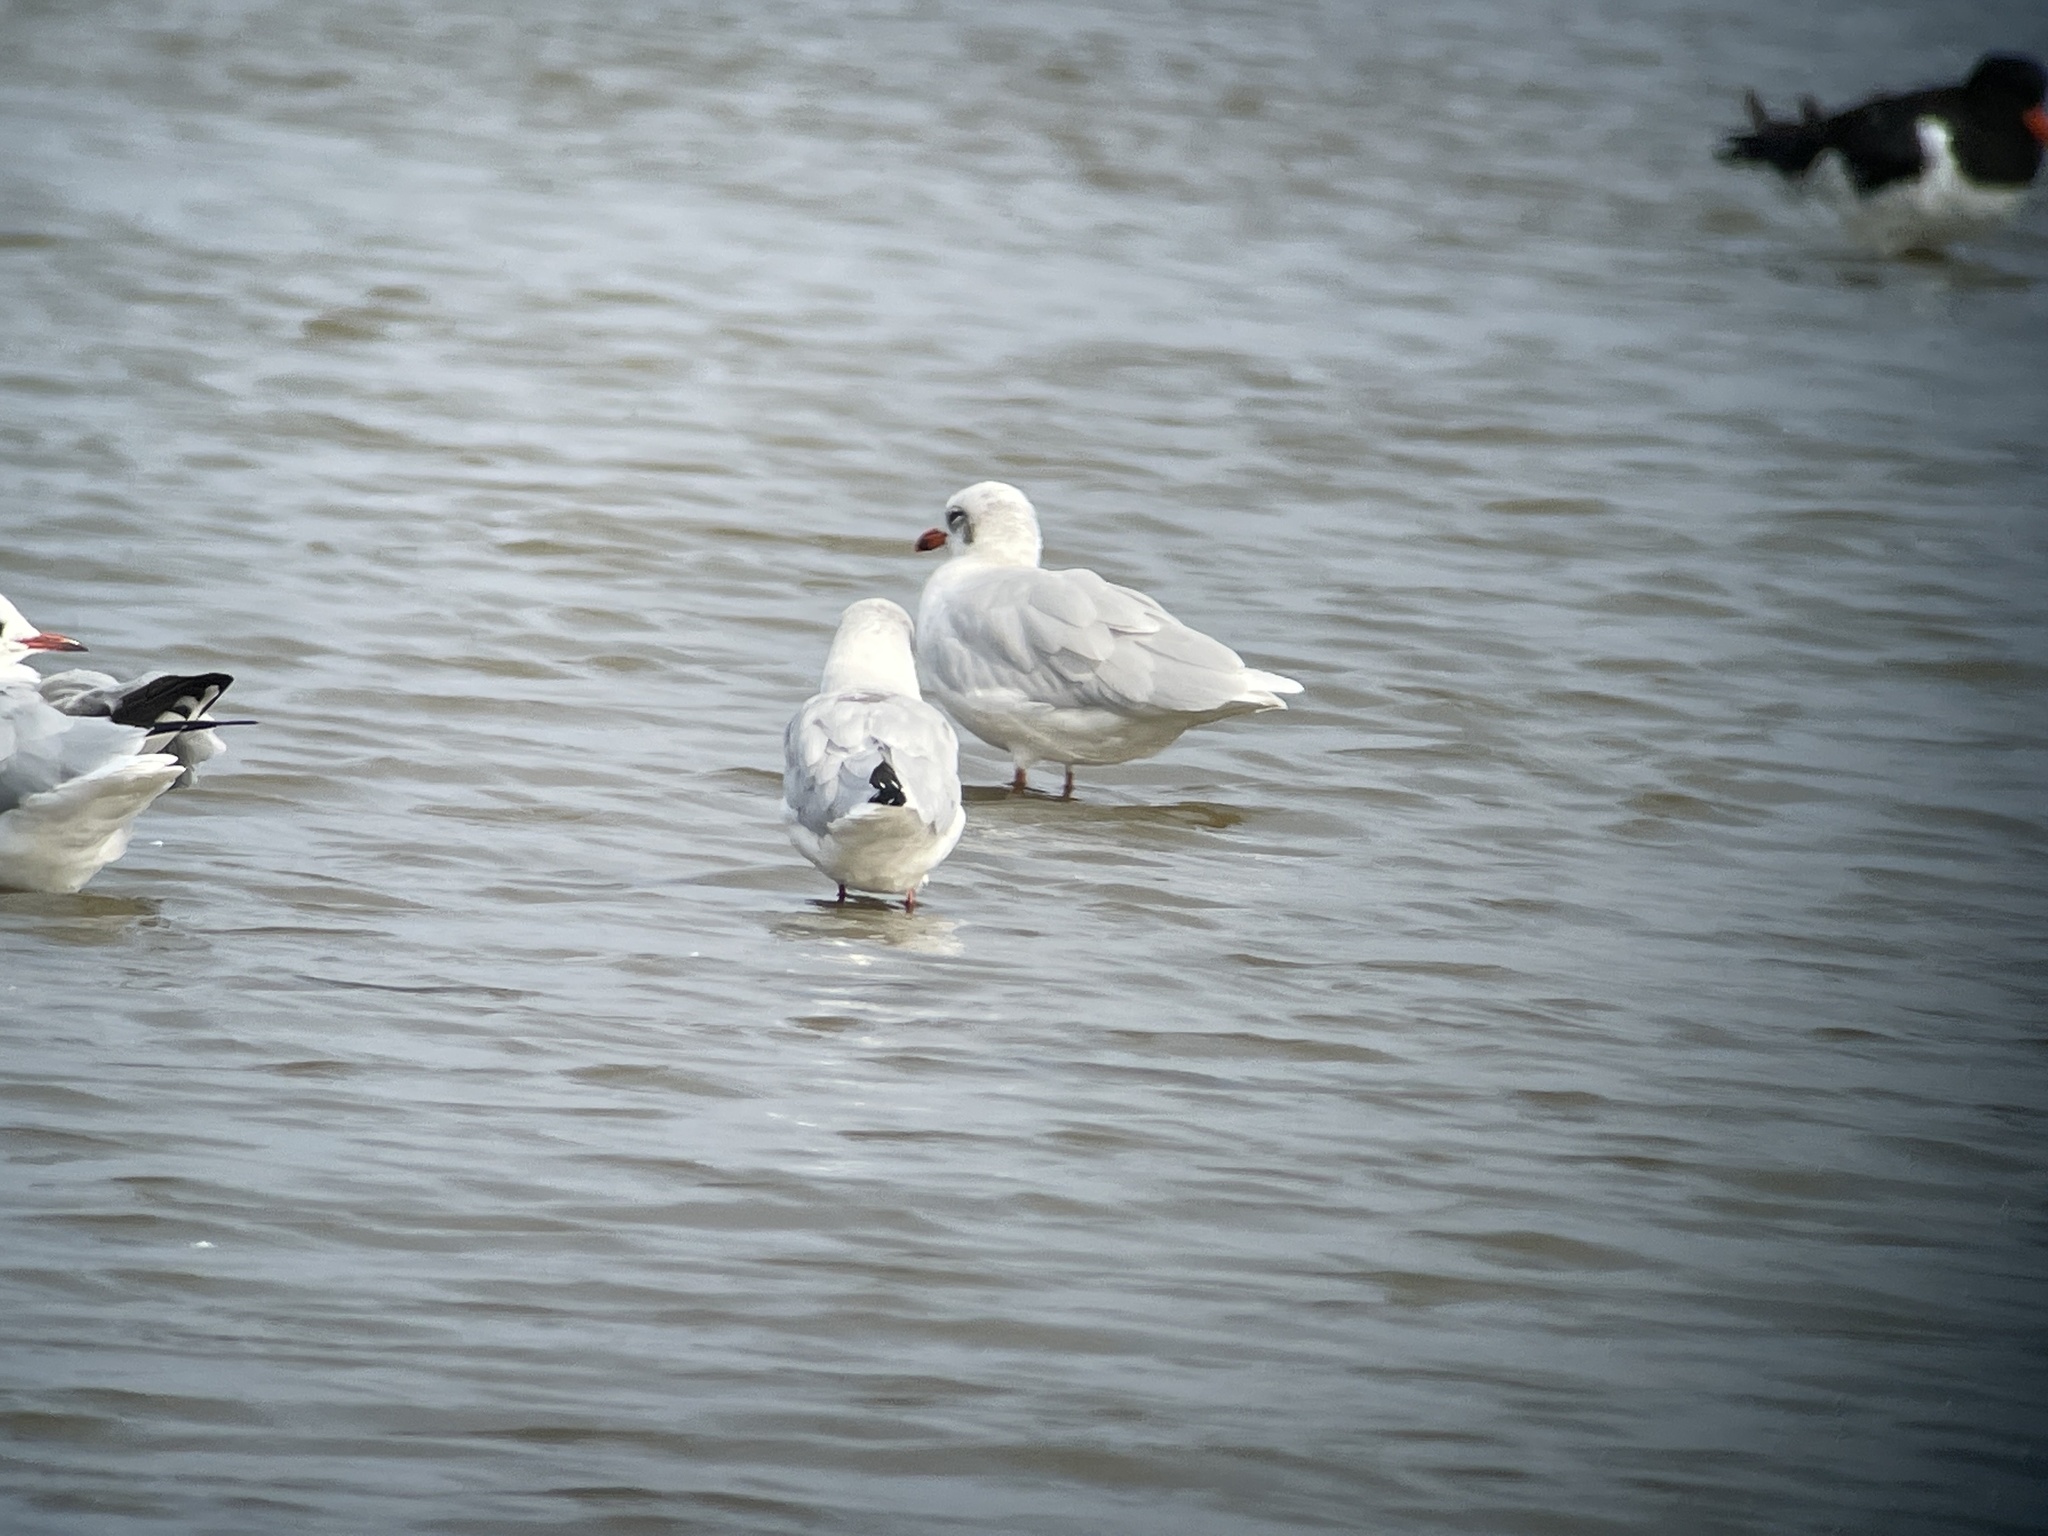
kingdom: Animalia
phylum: Chordata
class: Aves
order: Charadriiformes
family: Laridae
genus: Ichthyaetus
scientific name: Ichthyaetus melanocephalus
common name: Mediterranean gull
